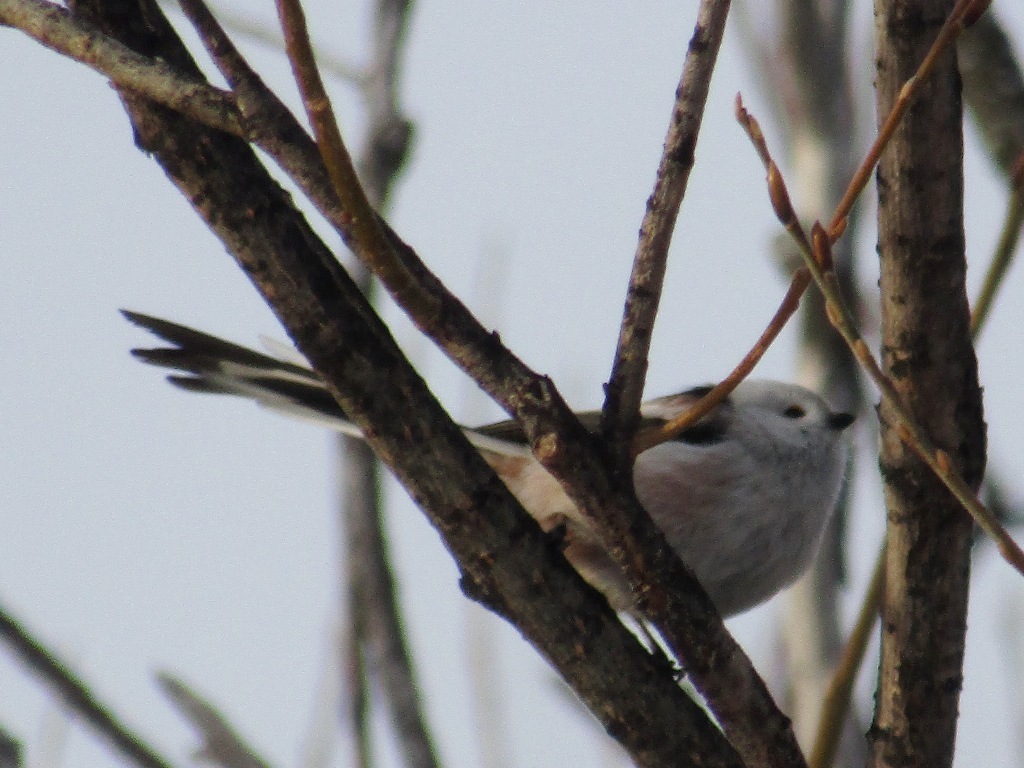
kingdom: Animalia
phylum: Chordata
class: Aves
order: Passeriformes
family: Aegithalidae
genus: Aegithalos
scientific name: Aegithalos caudatus
